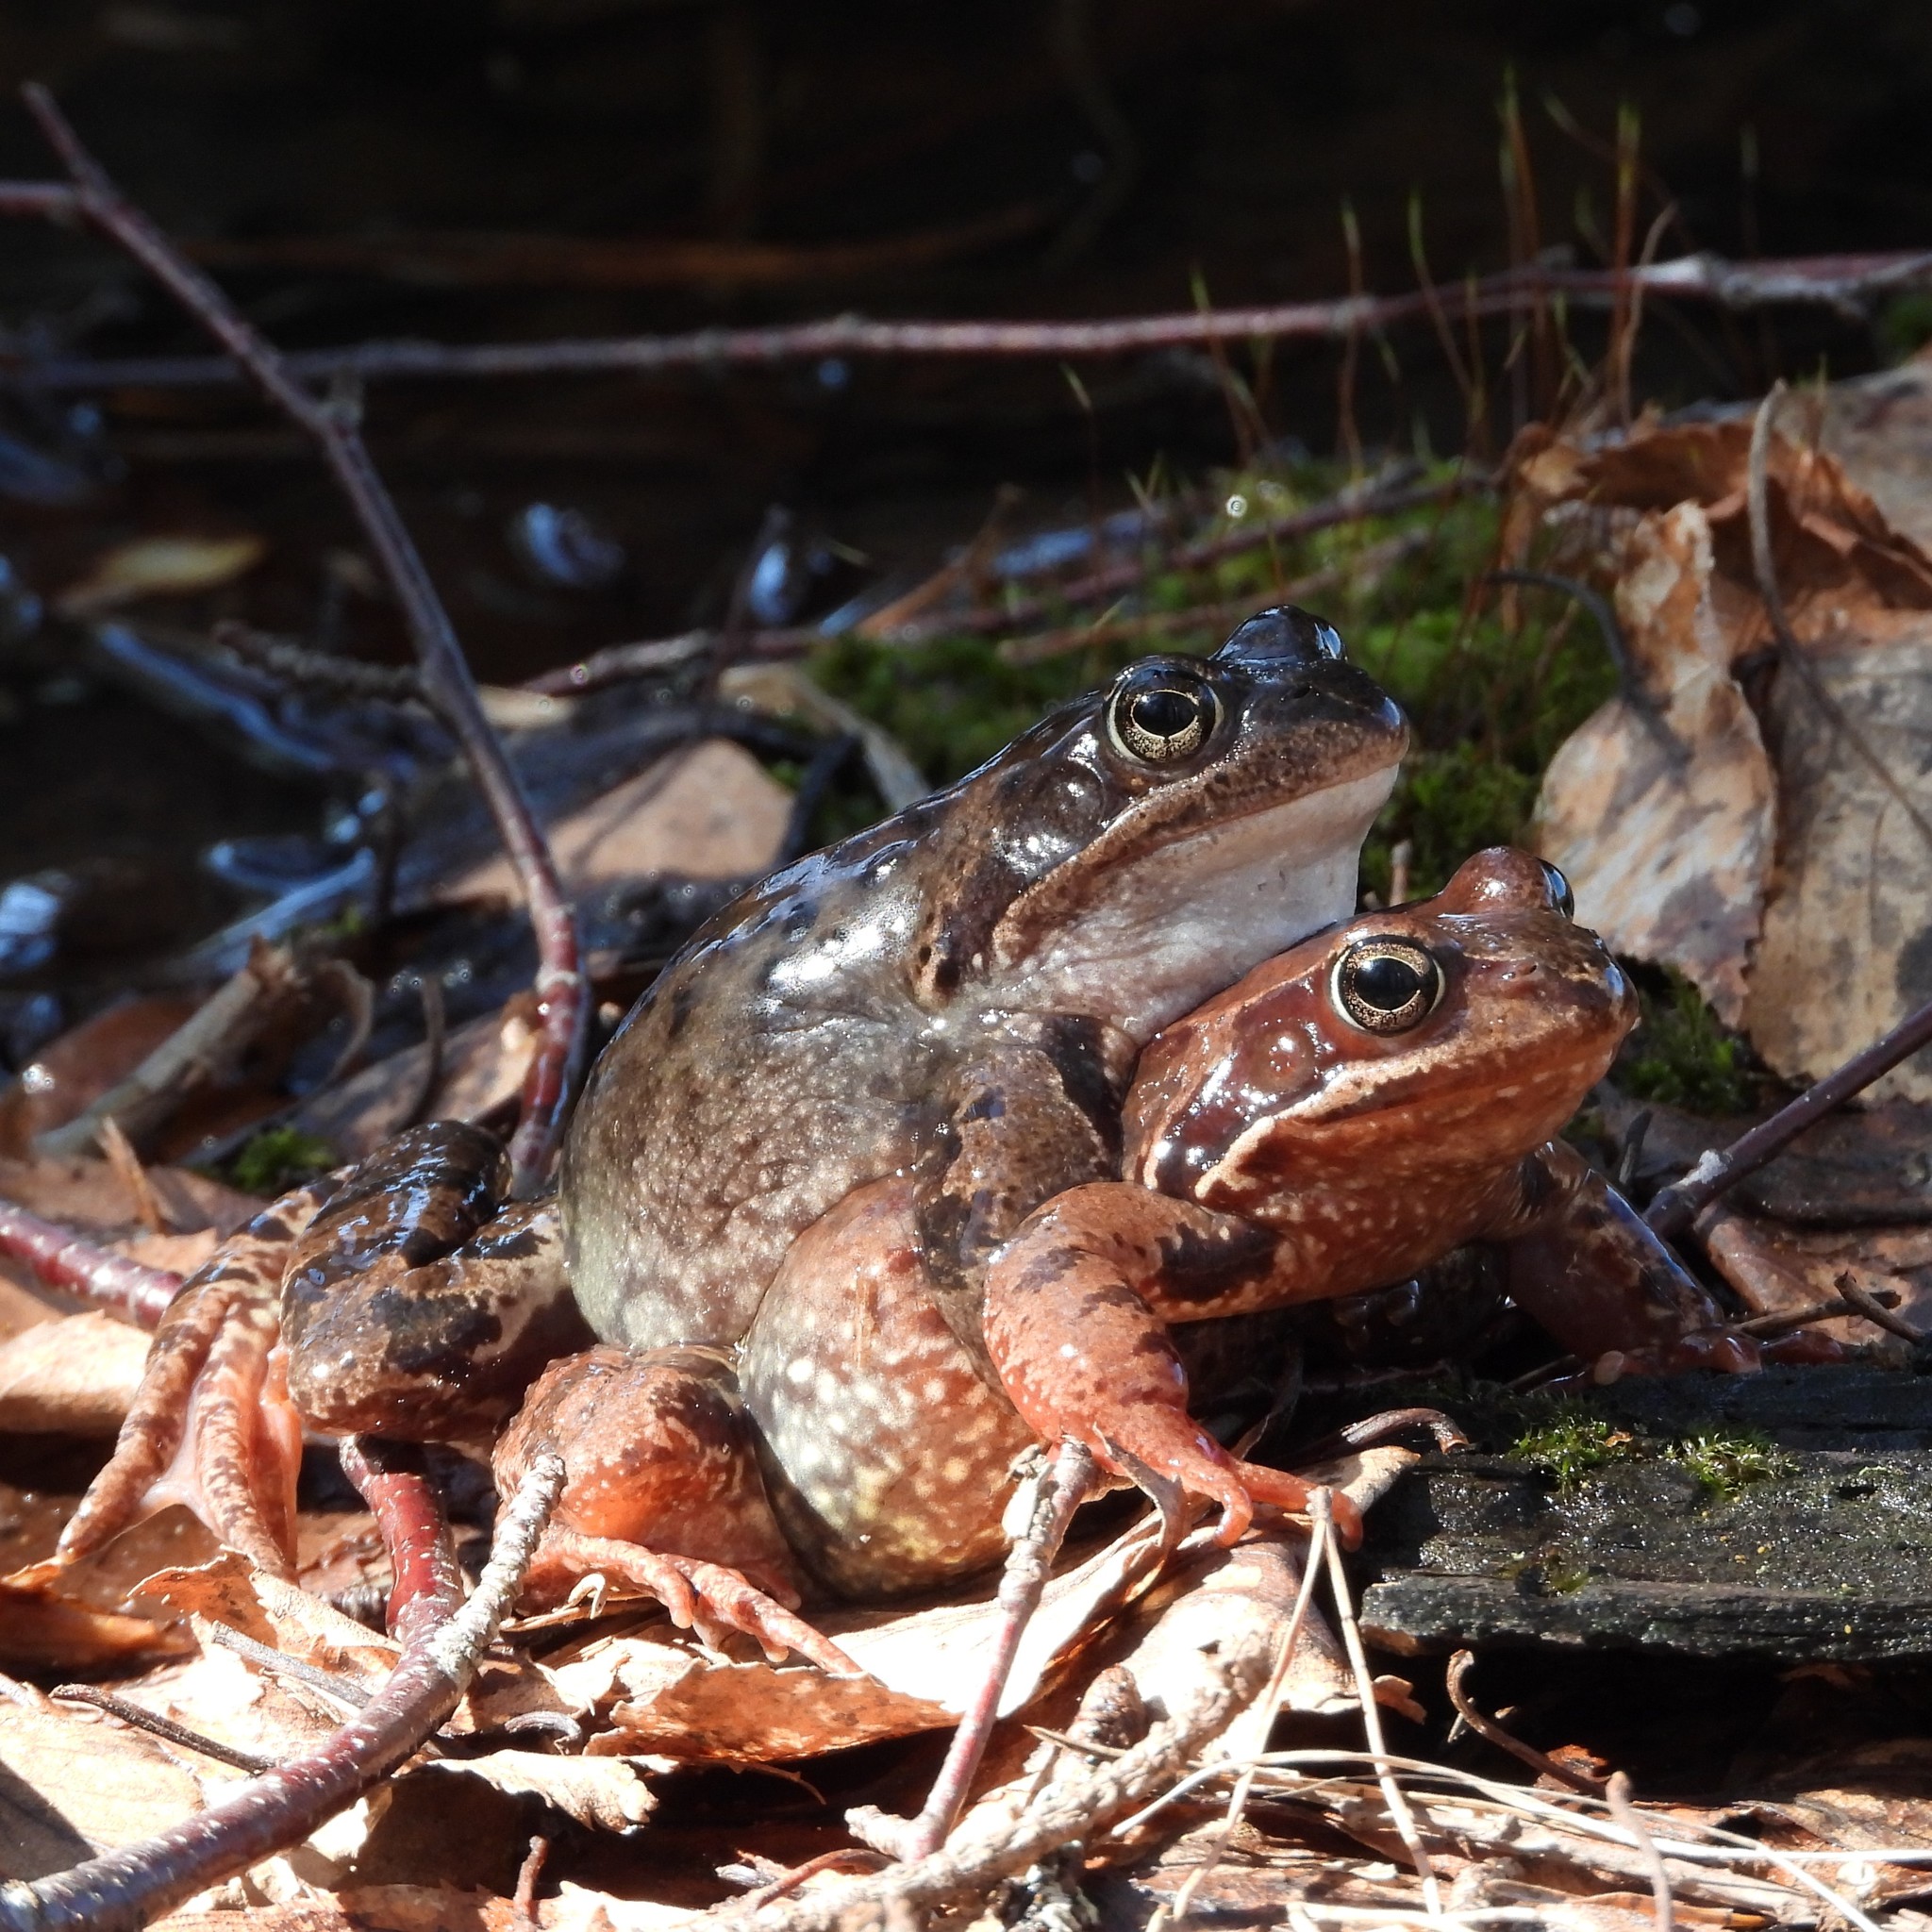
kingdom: Animalia
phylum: Chordata
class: Amphibia
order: Anura
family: Ranidae
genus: Rana
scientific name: Rana temporaria
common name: Common frog
